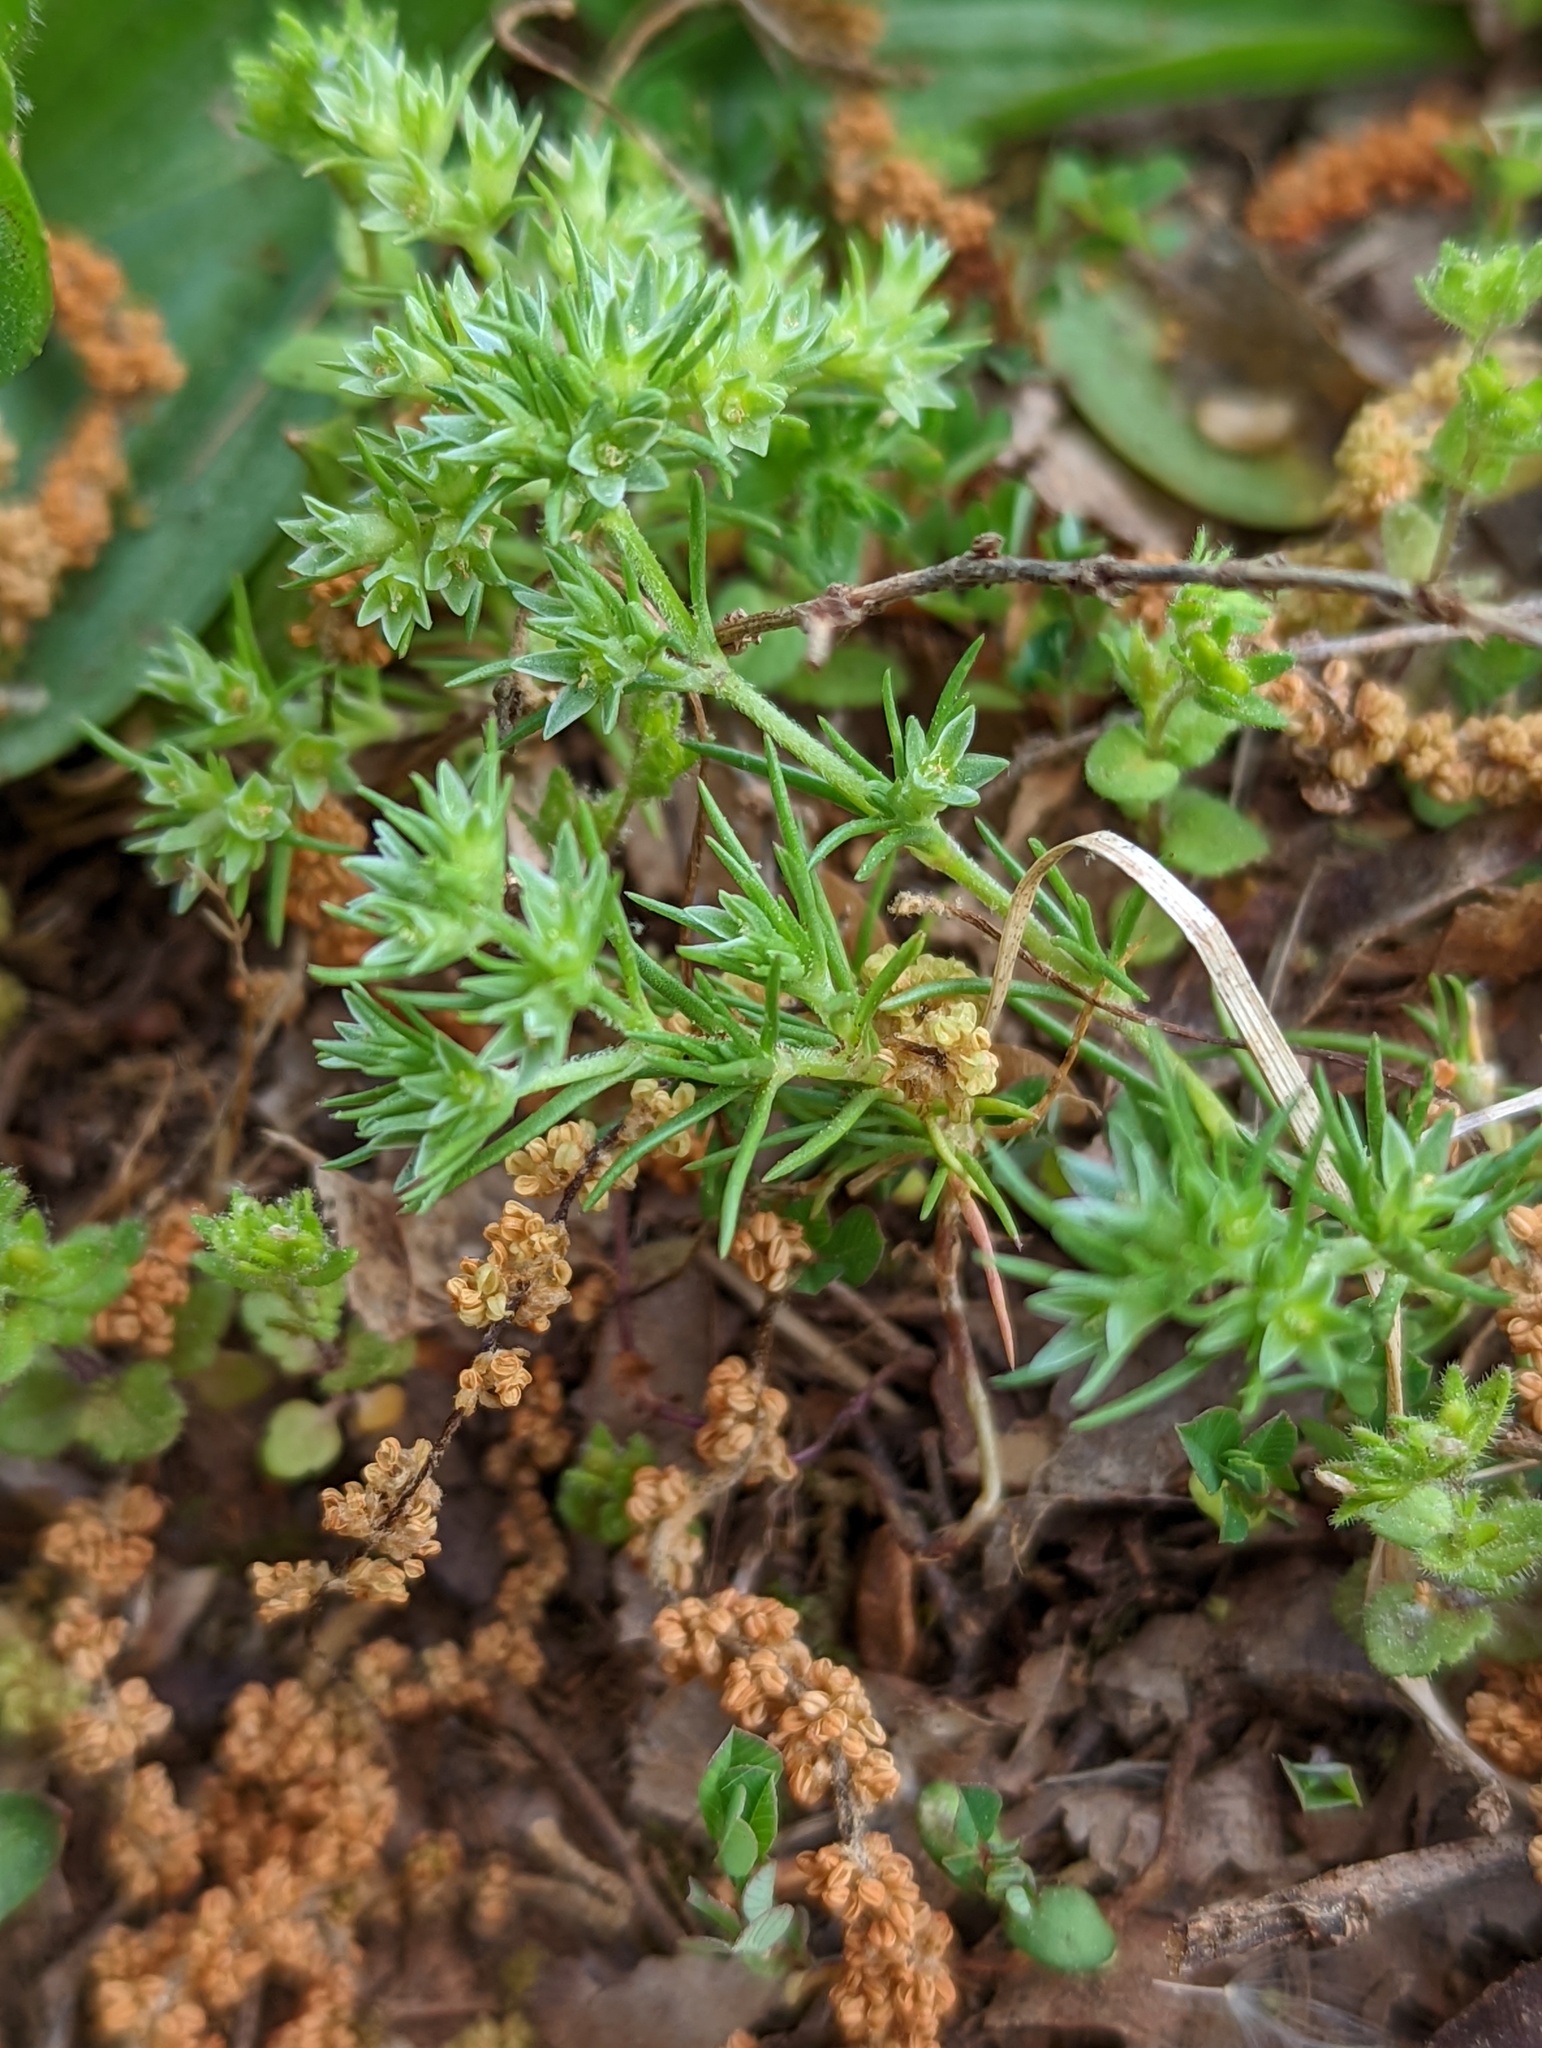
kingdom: Plantae
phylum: Tracheophyta
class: Magnoliopsida
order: Caryophyllales
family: Caryophyllaceae
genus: Scleranthus
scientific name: Scleranthus annuus
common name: Annual knawel
